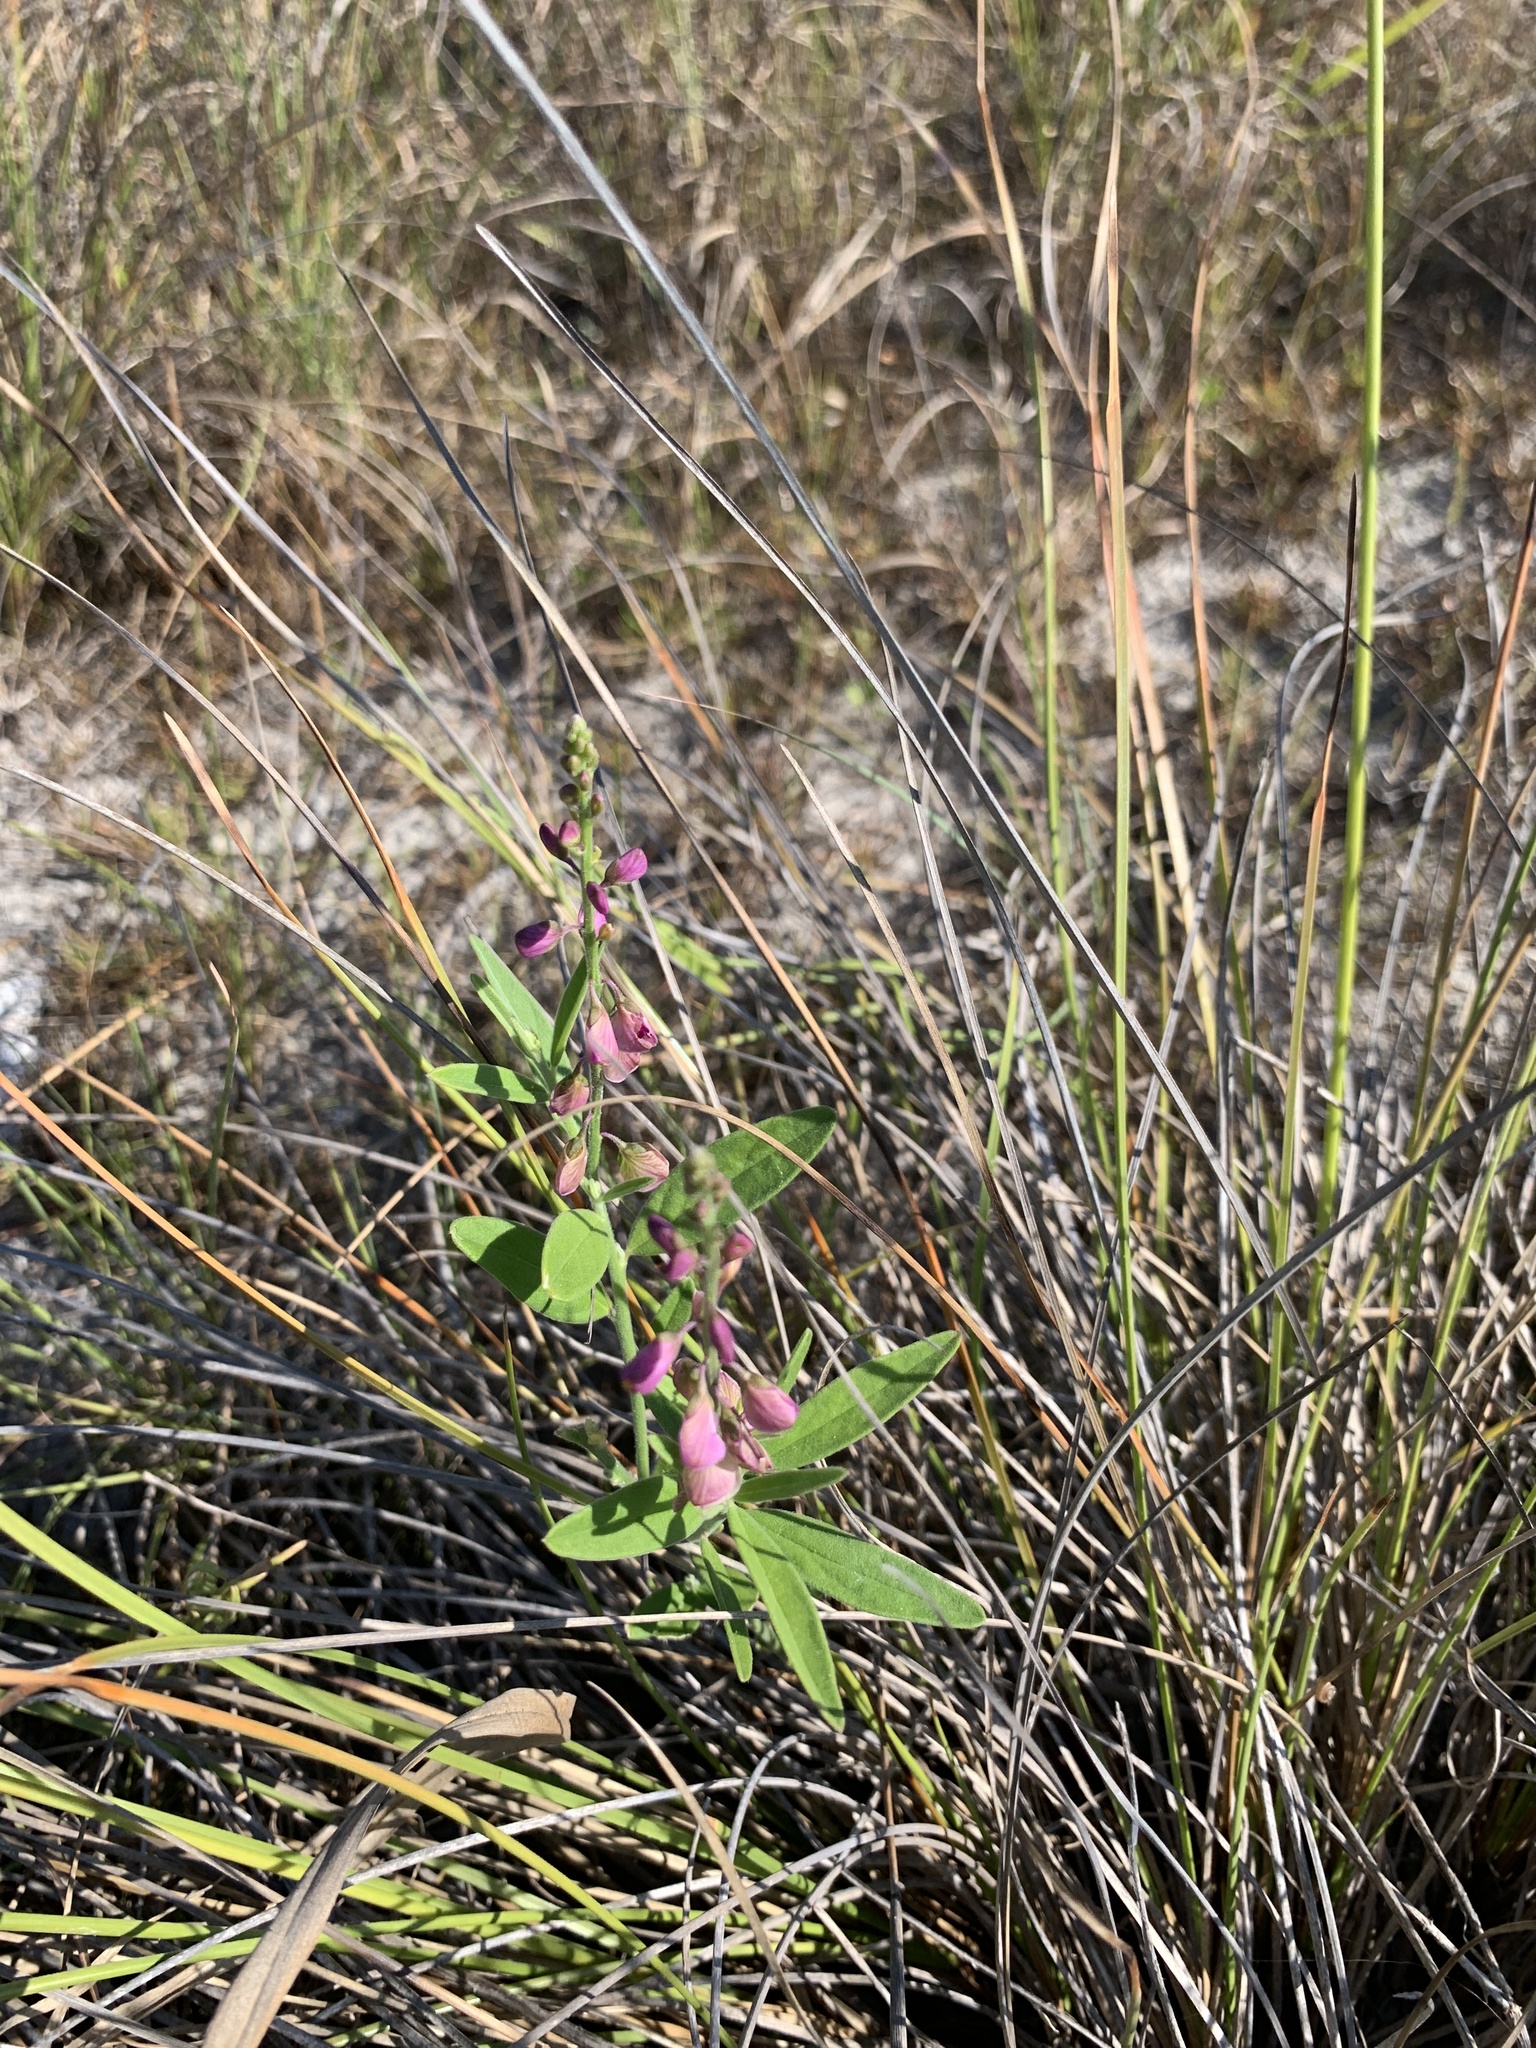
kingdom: Plantae
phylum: Tracheophyta
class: Magnoliopsida
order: Fabales
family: Polygalaceae
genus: Asemeia
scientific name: Asemeia grandiflora
